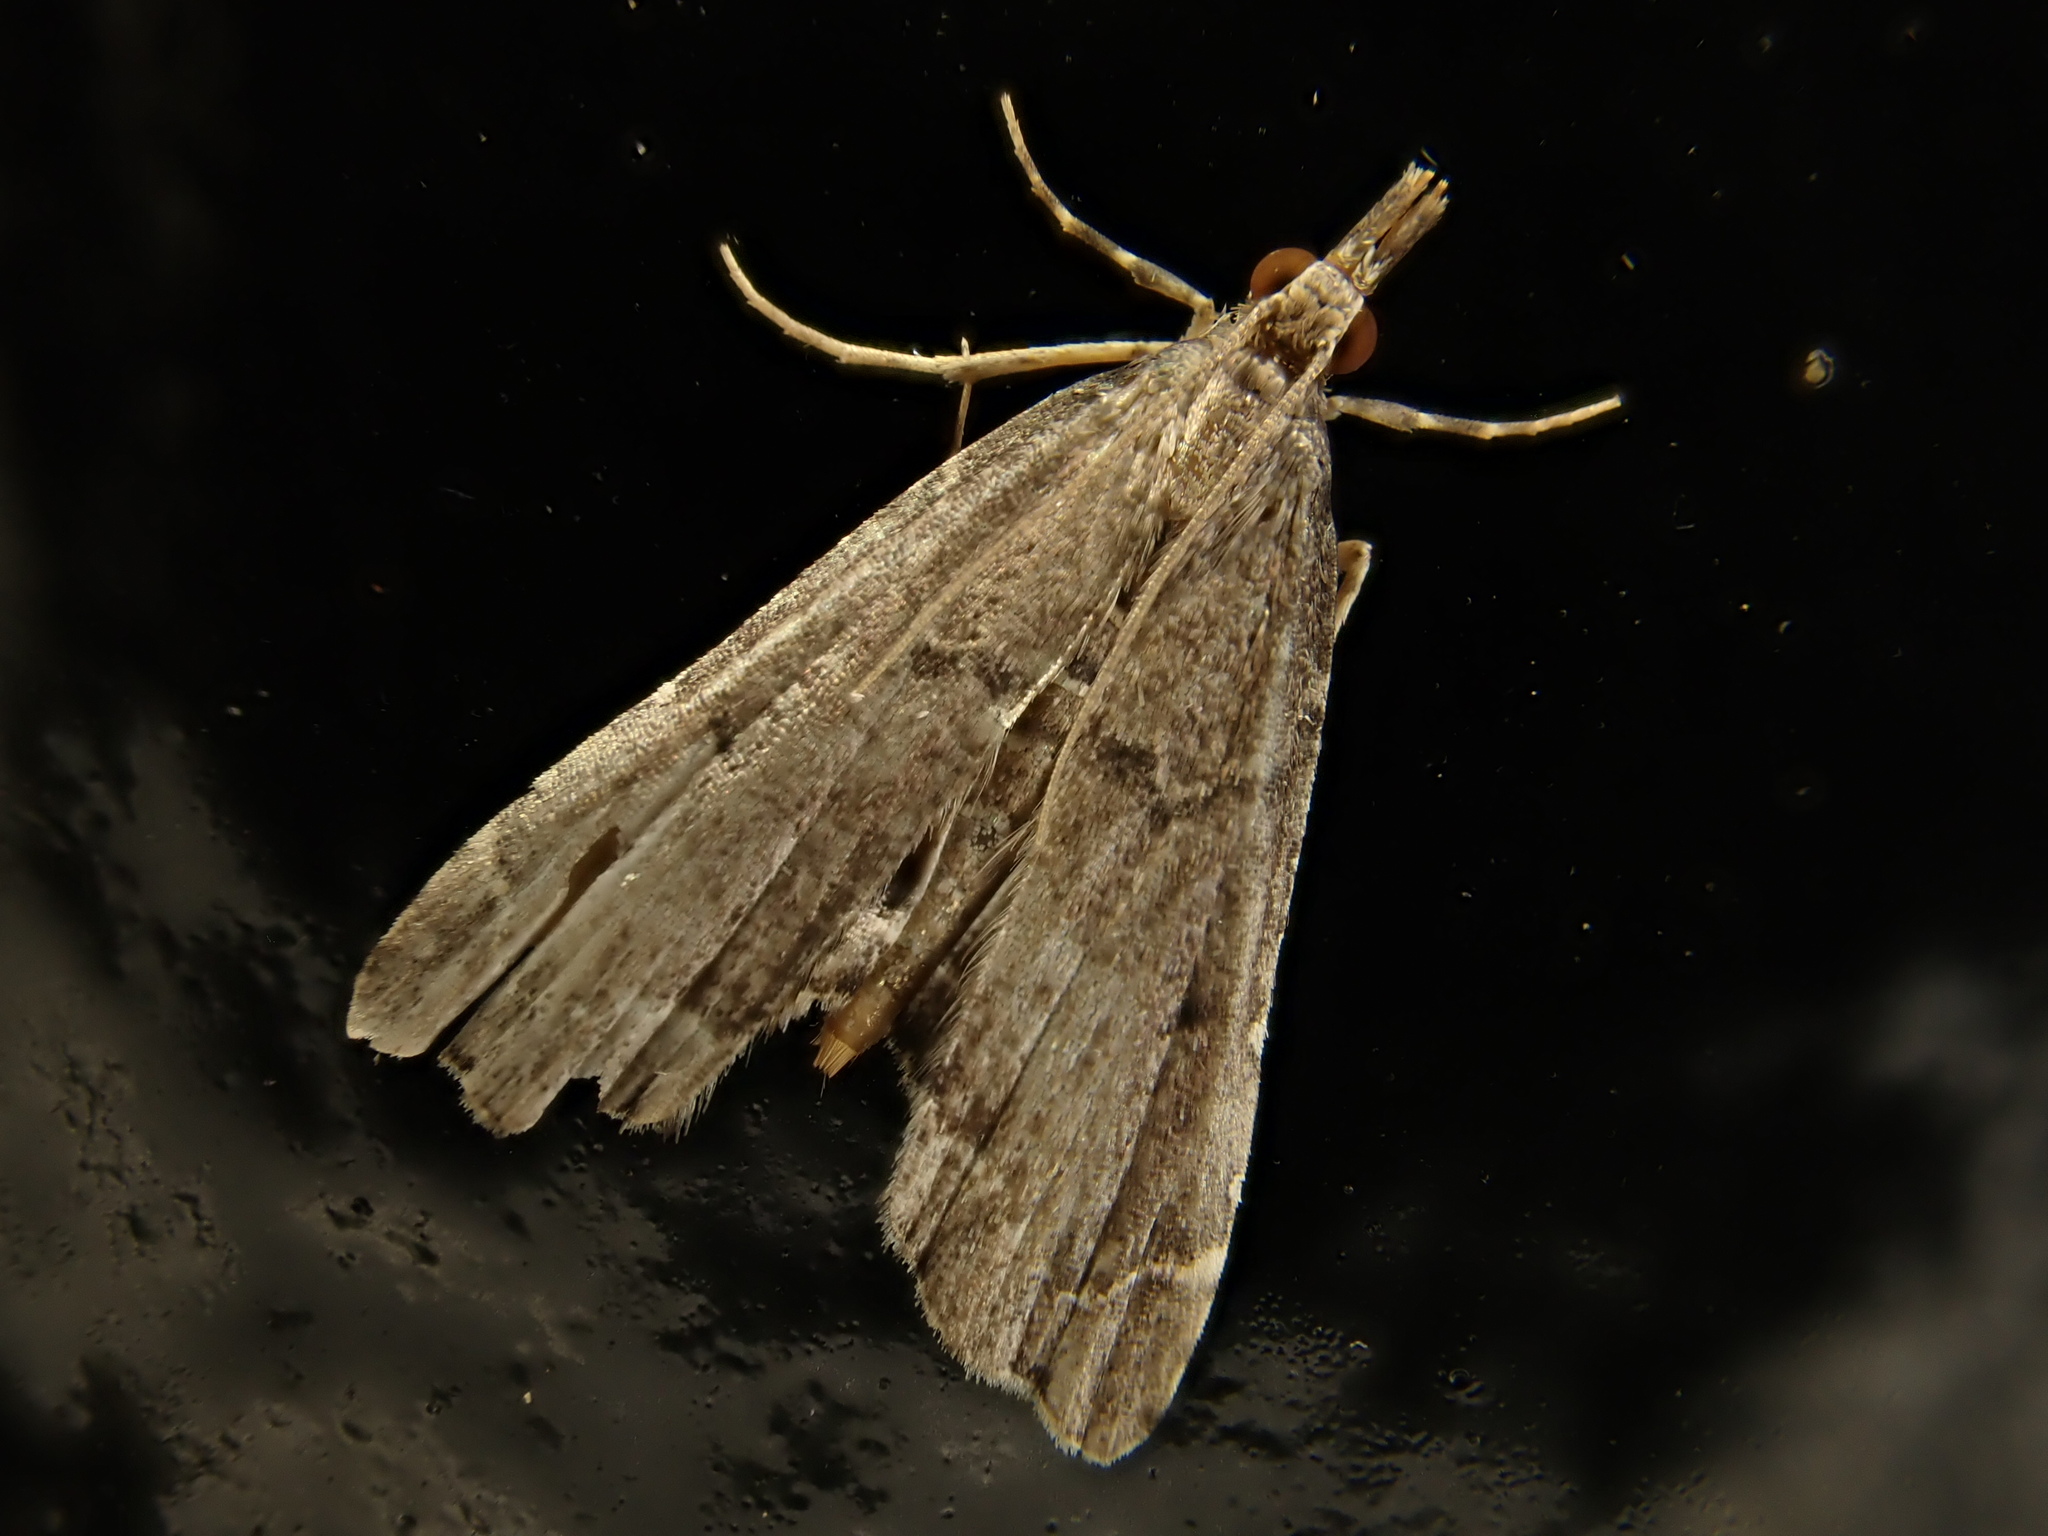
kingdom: Animalia
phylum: Arthropoda
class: Insecta
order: Lepidoptera
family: Crambidae
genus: Diplopseustis
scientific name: Diplopseustis perieresalis
